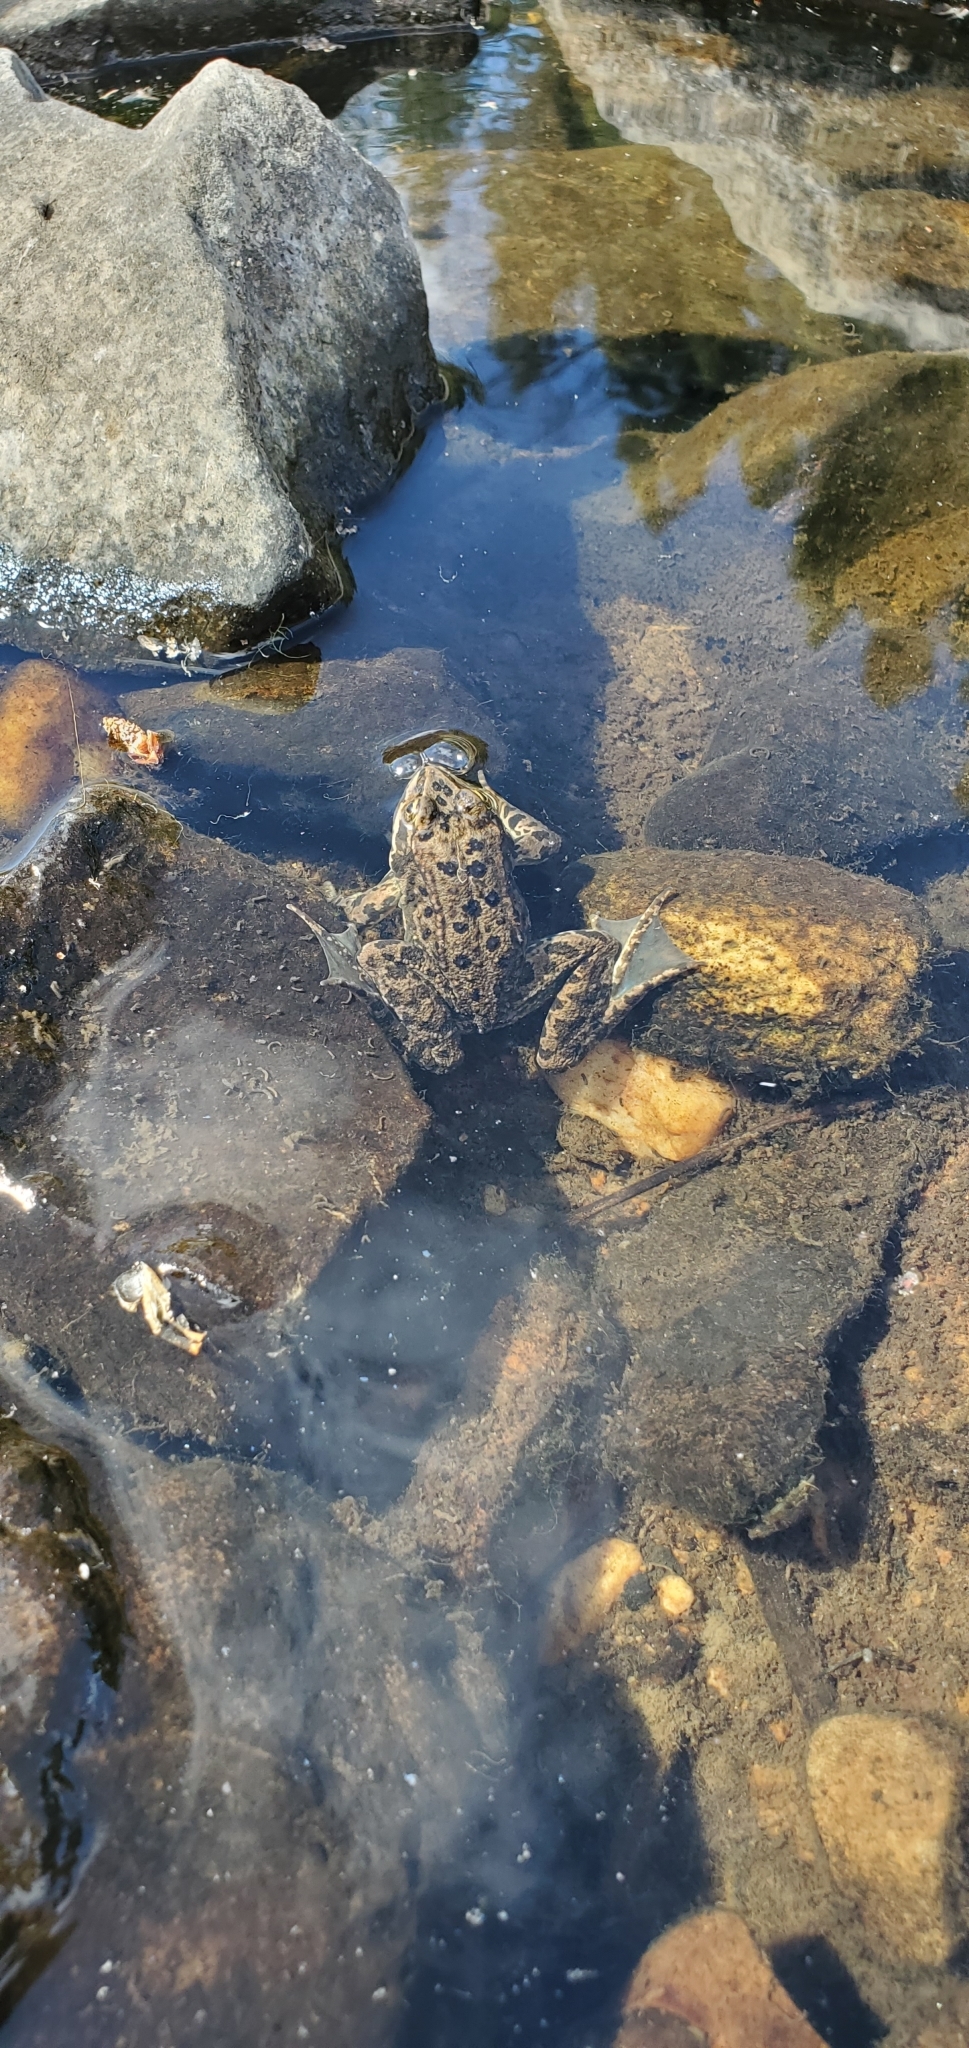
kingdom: Animalia
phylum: Chordata
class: Amphibia
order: Anura
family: Ranidae
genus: Rana
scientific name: Rana luteiventris
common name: Columbia spotted frog
